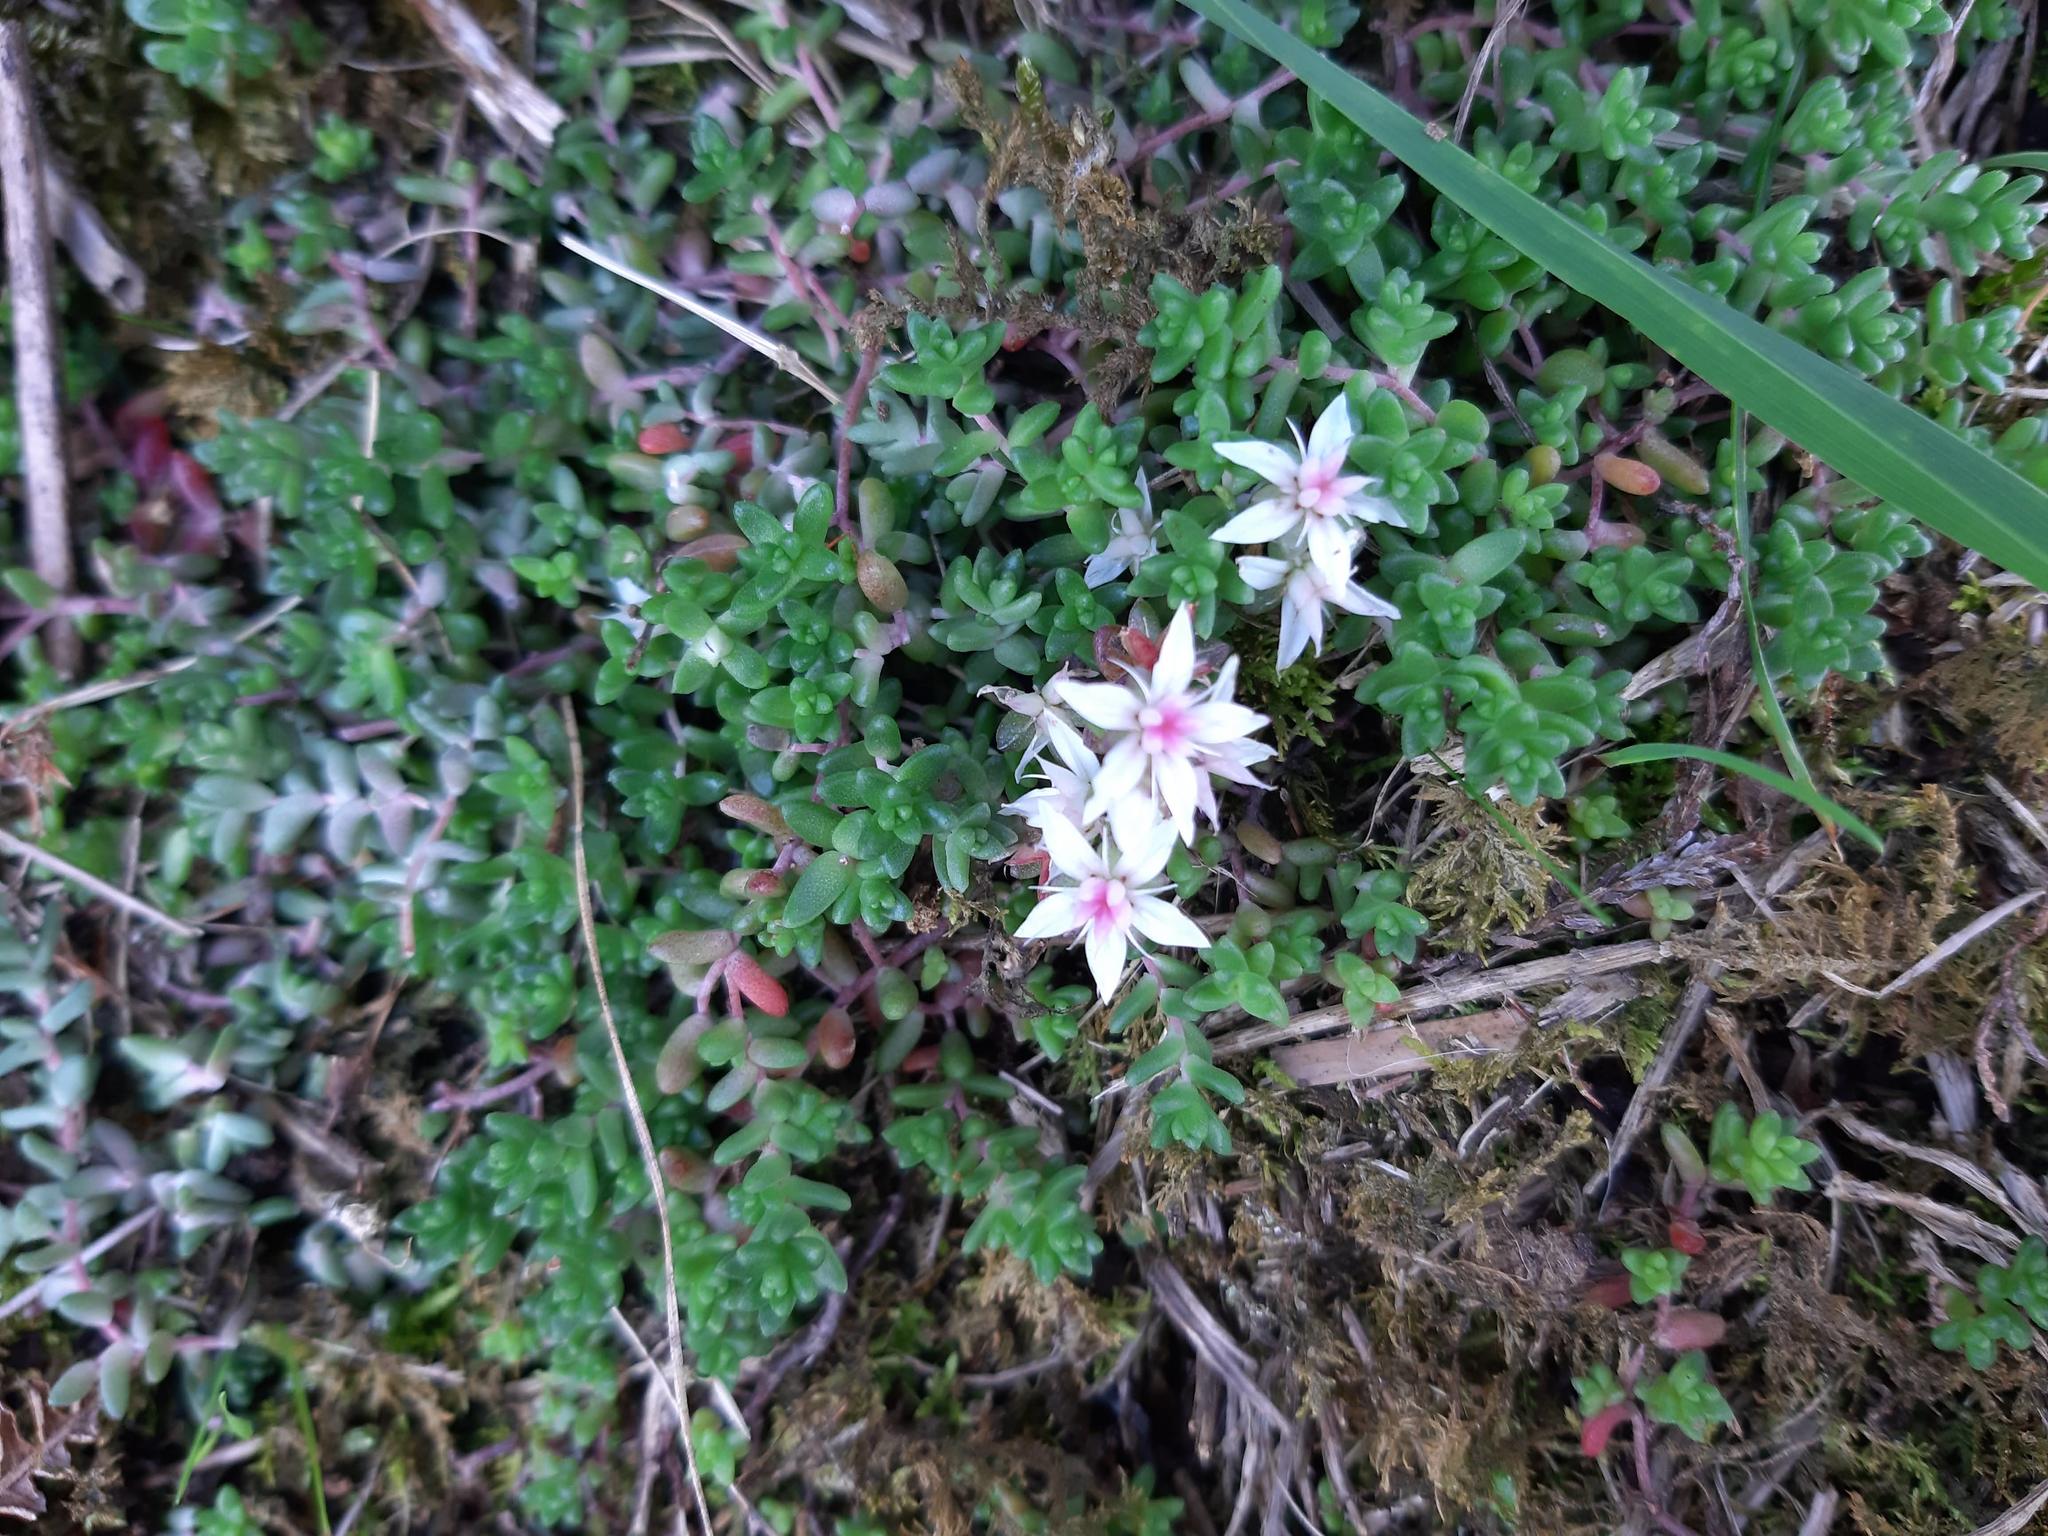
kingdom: Plantae
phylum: Tracheophyta
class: Magnoliopsida
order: Saxifragales
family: Crassulaceae
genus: Sedum
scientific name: Sedum anglicum
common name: English stonecrop
